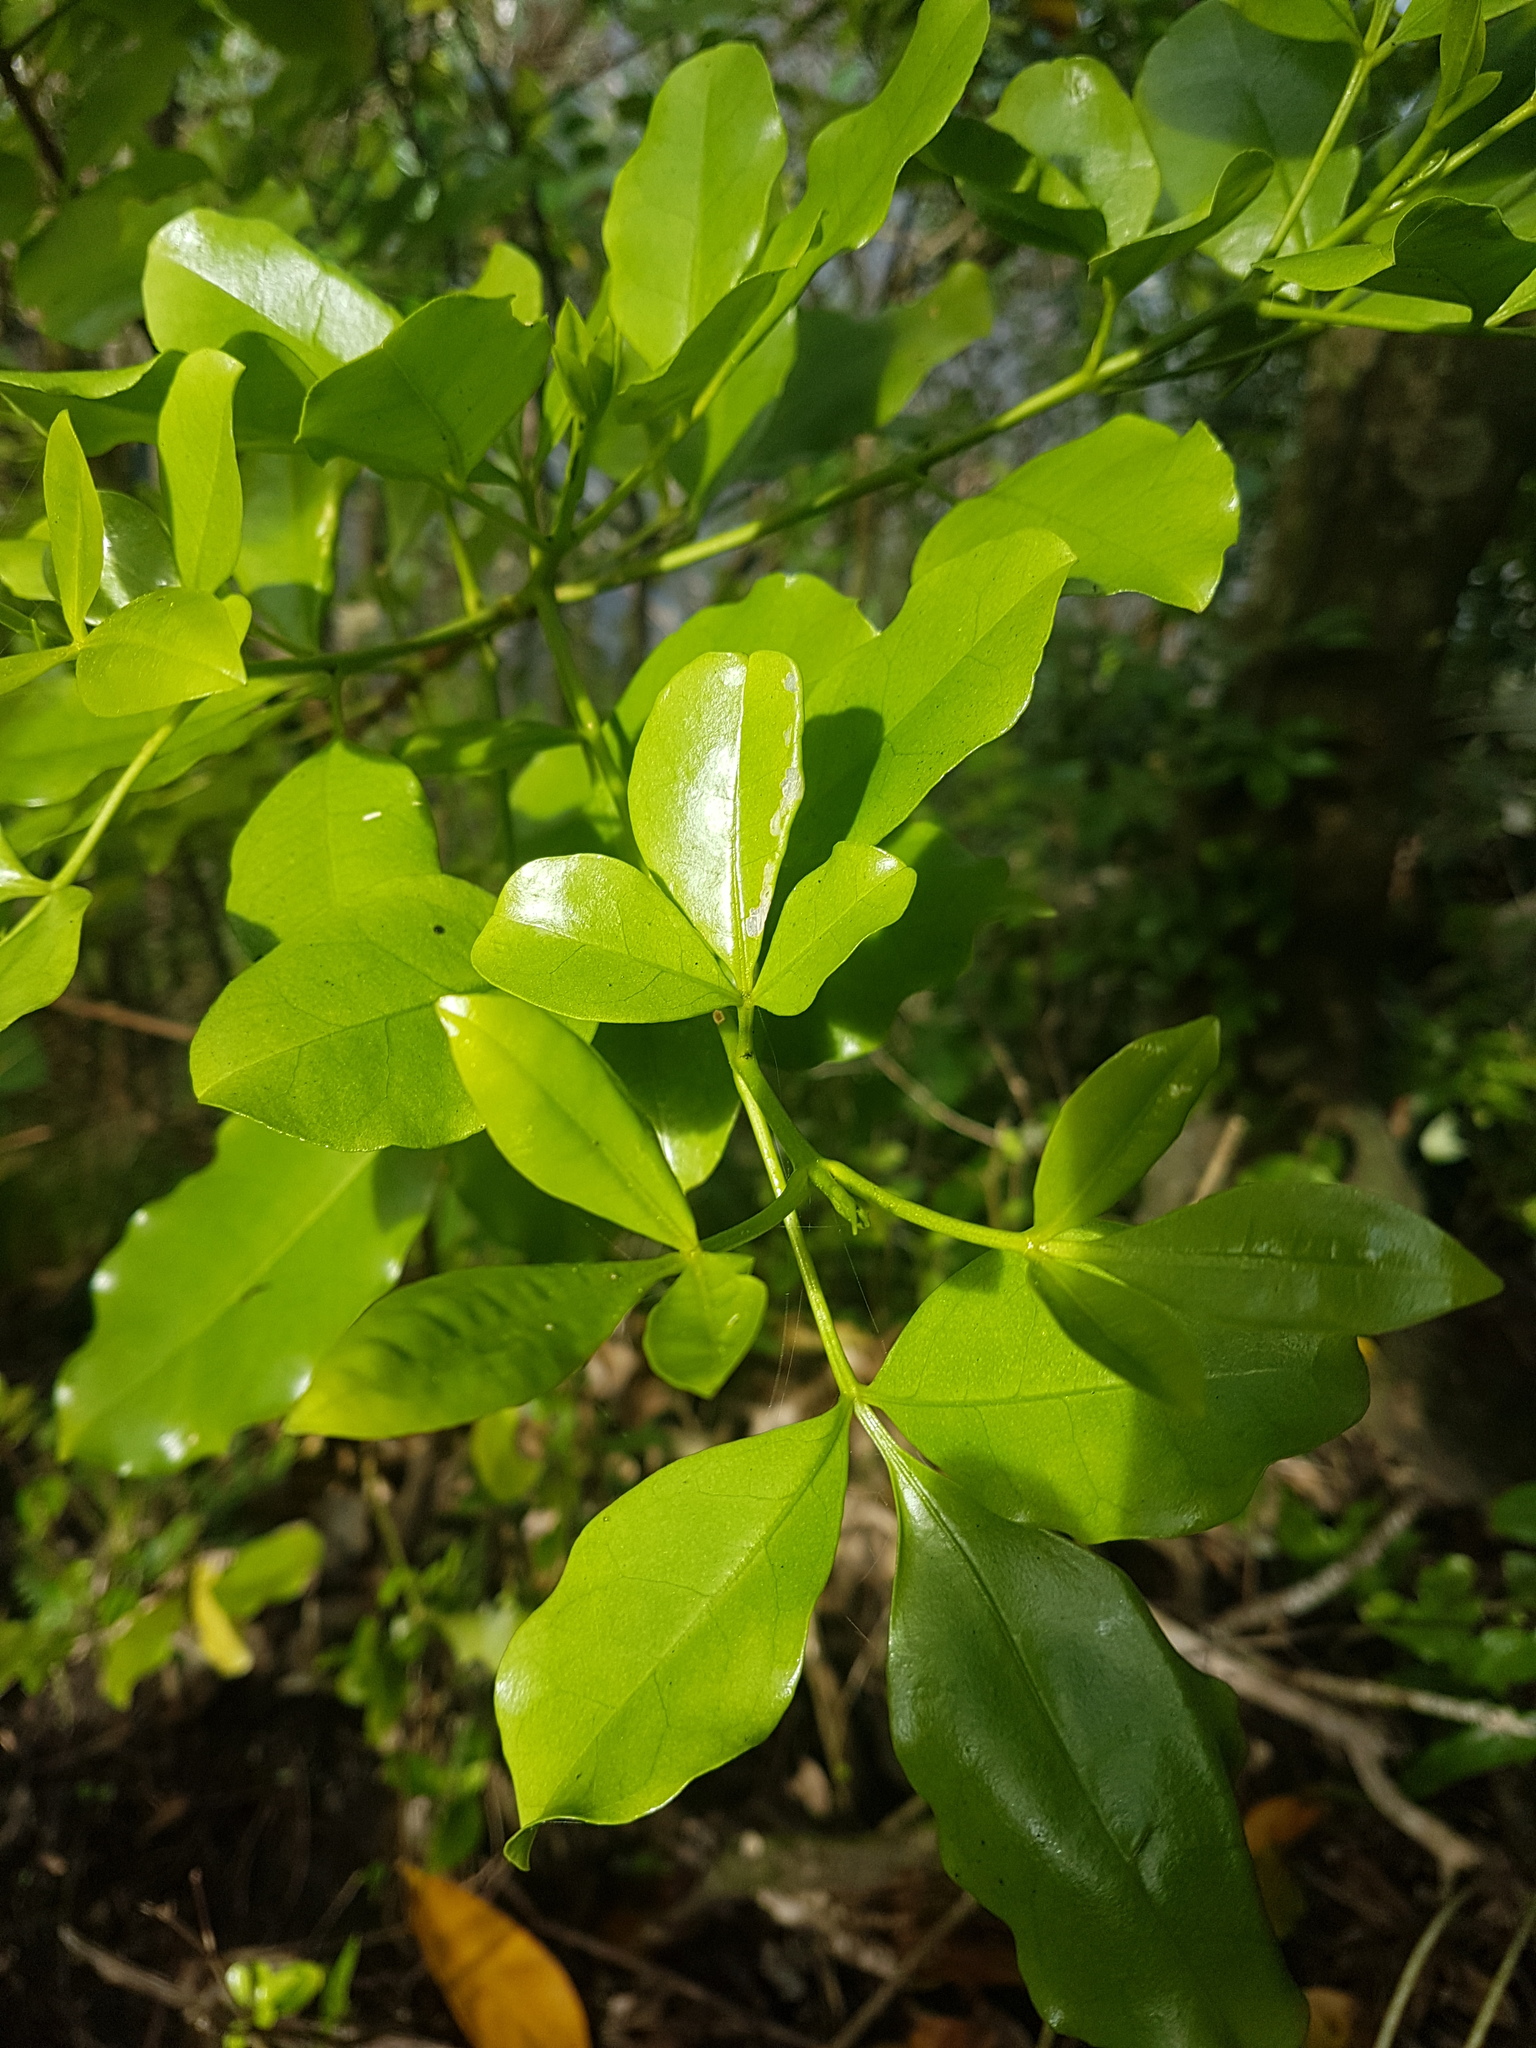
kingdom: Plantae
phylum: Tracheophyta
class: Magnoliopsida
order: Sapindales
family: Rutaceae
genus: Melicope
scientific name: Melicope ternata
